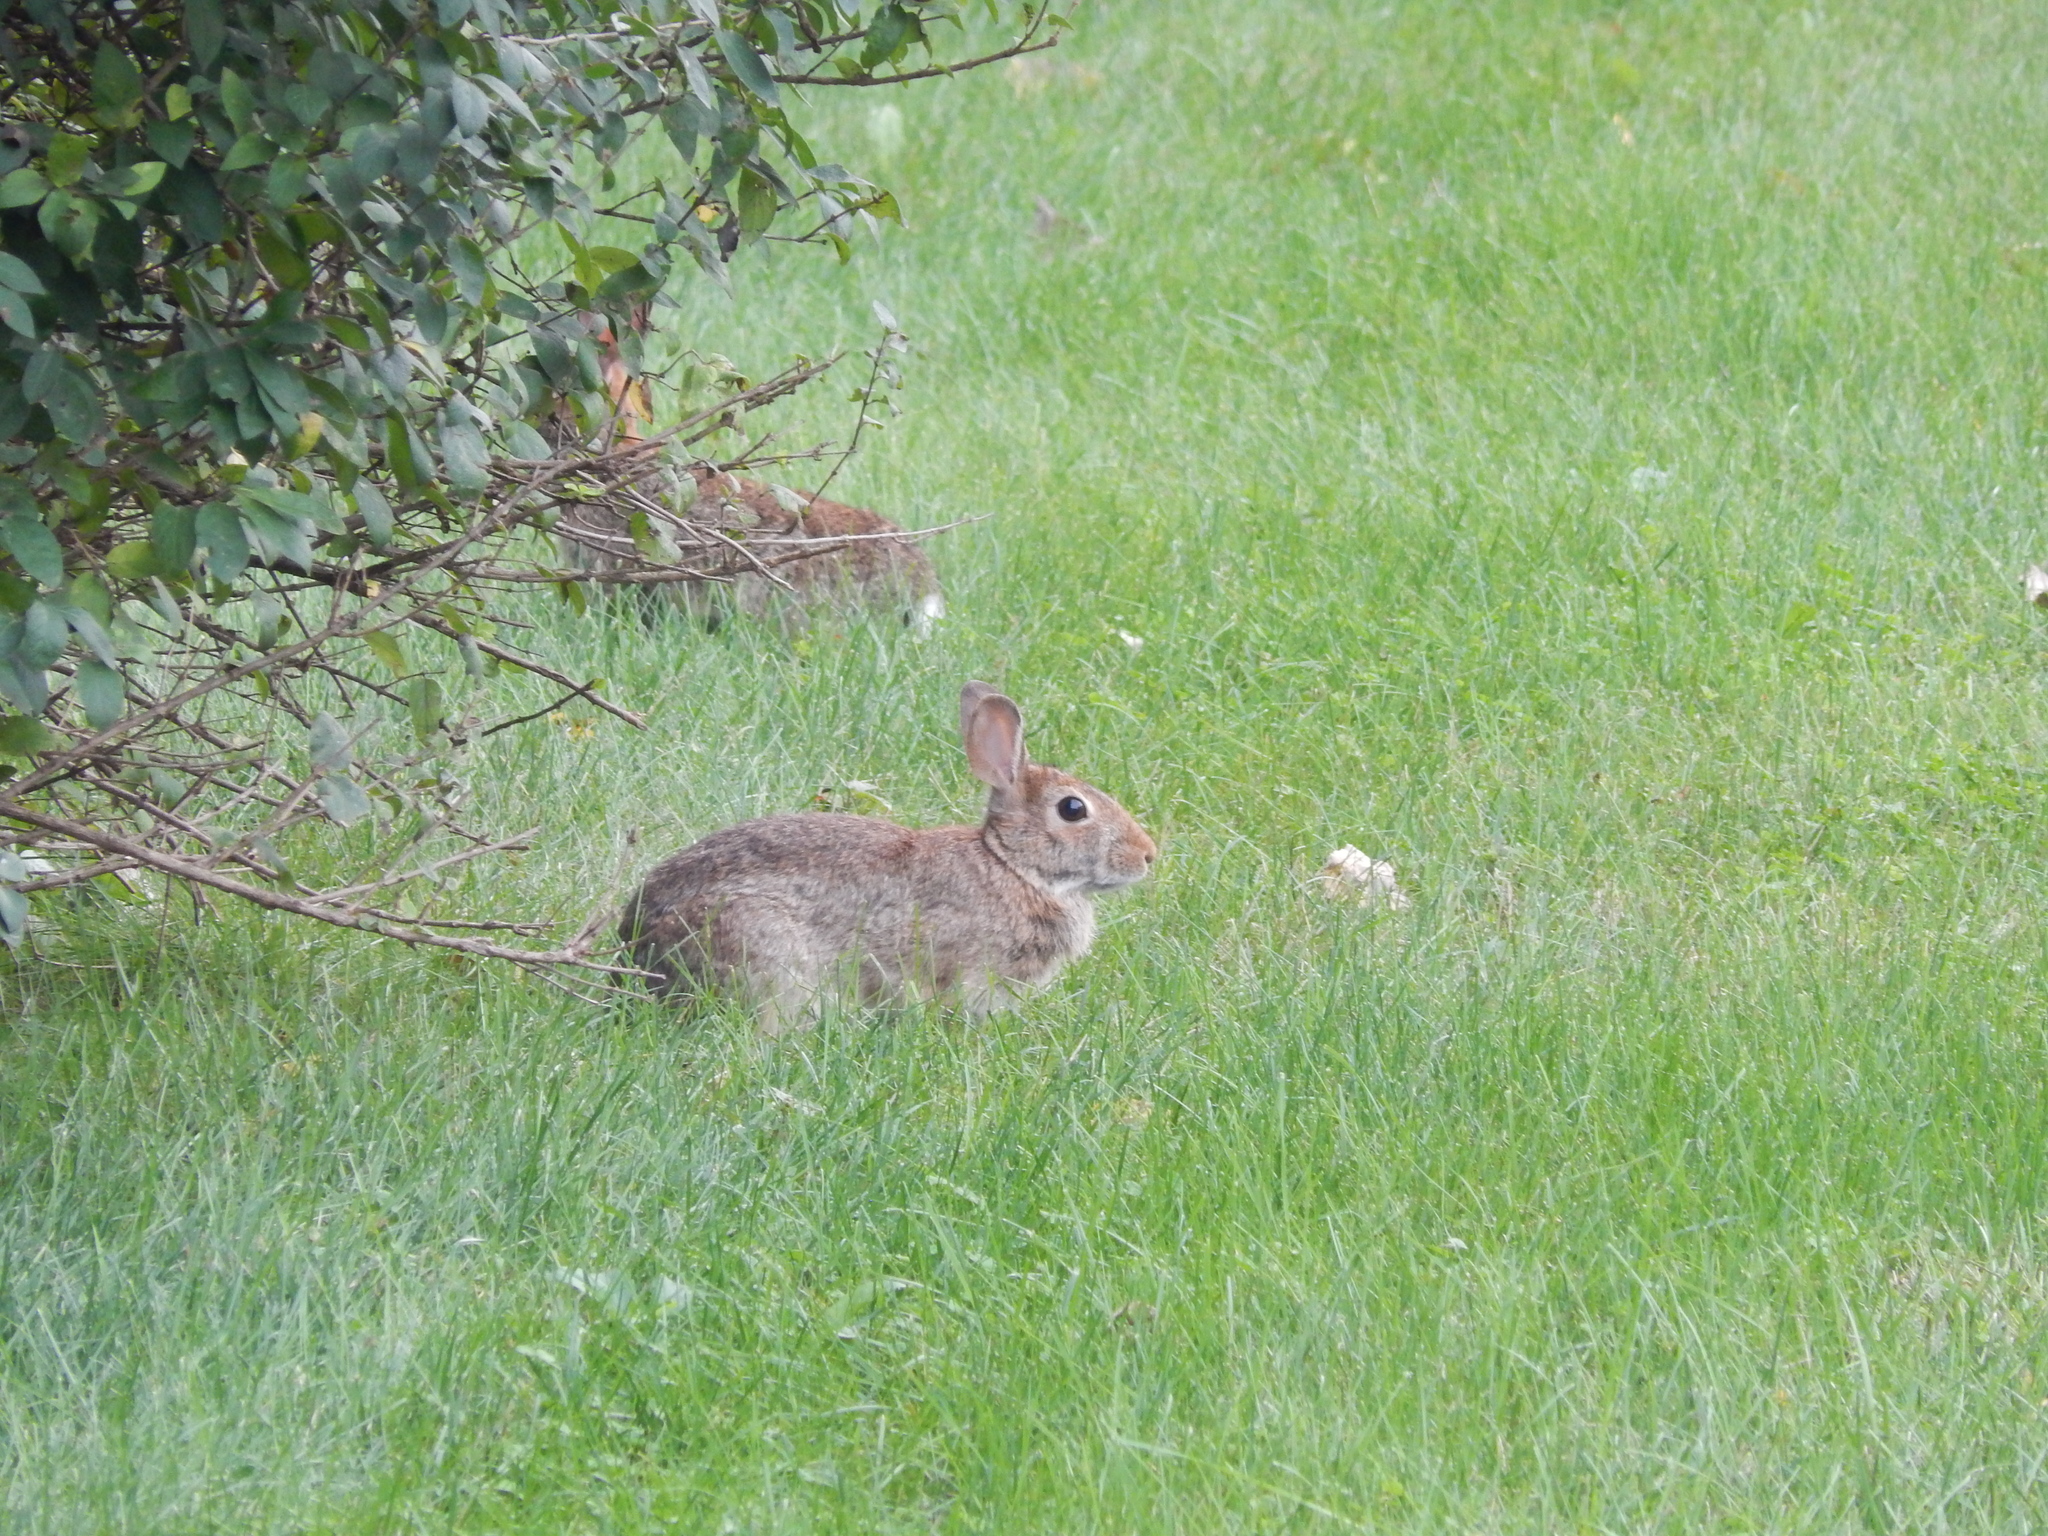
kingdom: Animalia
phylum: Chordata
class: Mammalia
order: Lagomorpha
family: Leporidae
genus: Sylvilagus
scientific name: Sylvilagus floridanus
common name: Eastern cottontail
